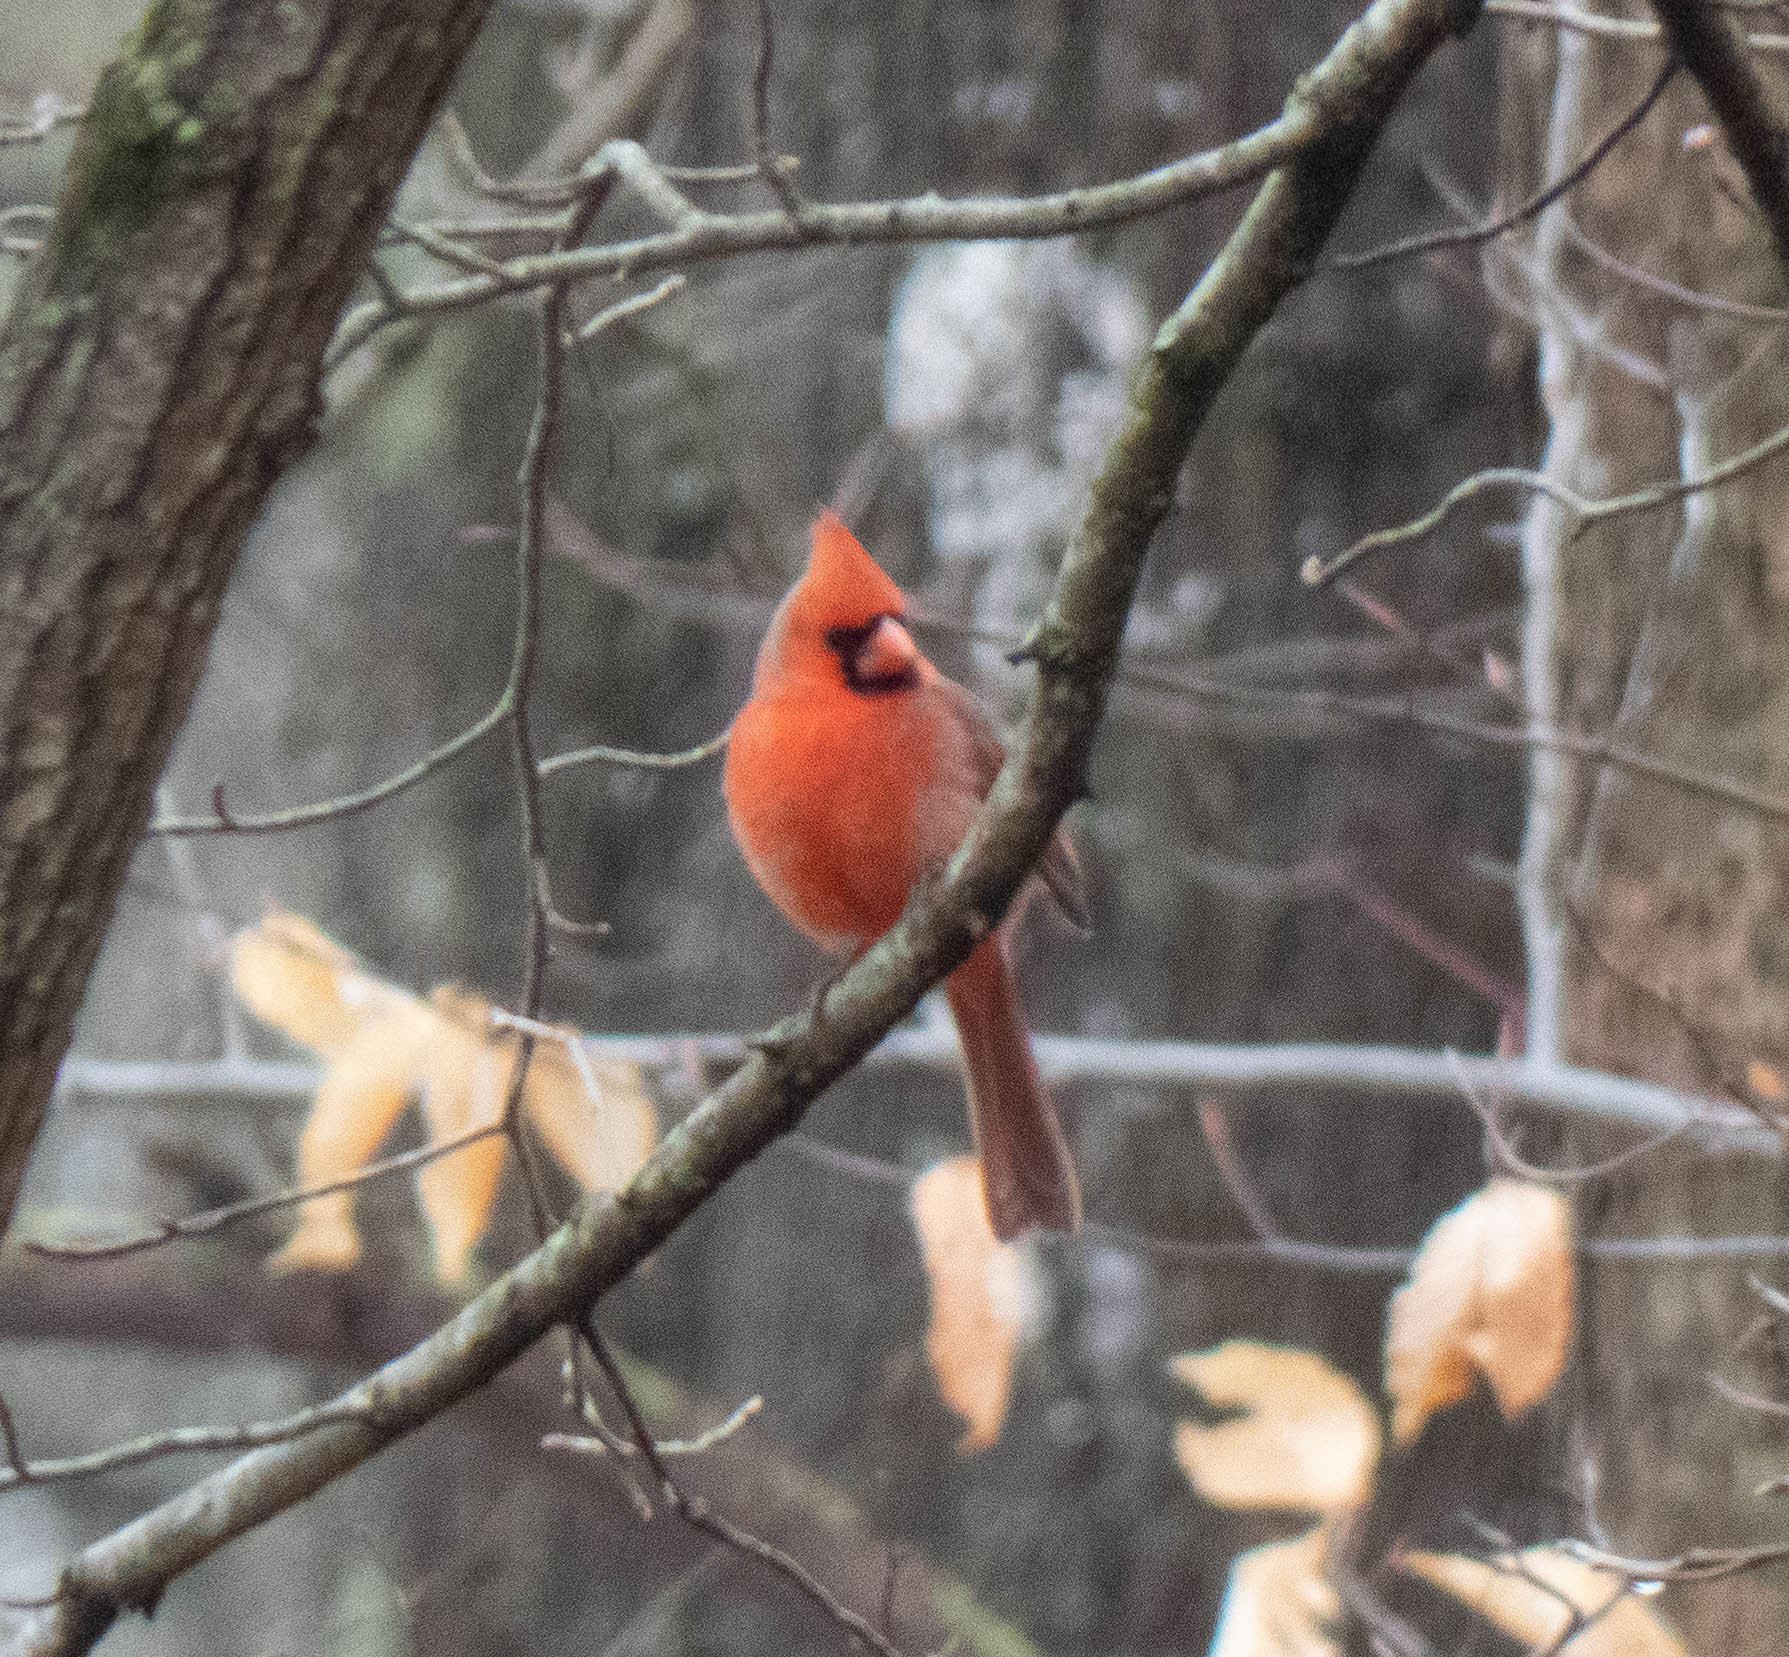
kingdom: Animalia
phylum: Chordata
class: Aves
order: Passeriformes
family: Cardinalidae
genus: Cardinalis
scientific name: Cardinalis cardinalis
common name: Northern cardinal
